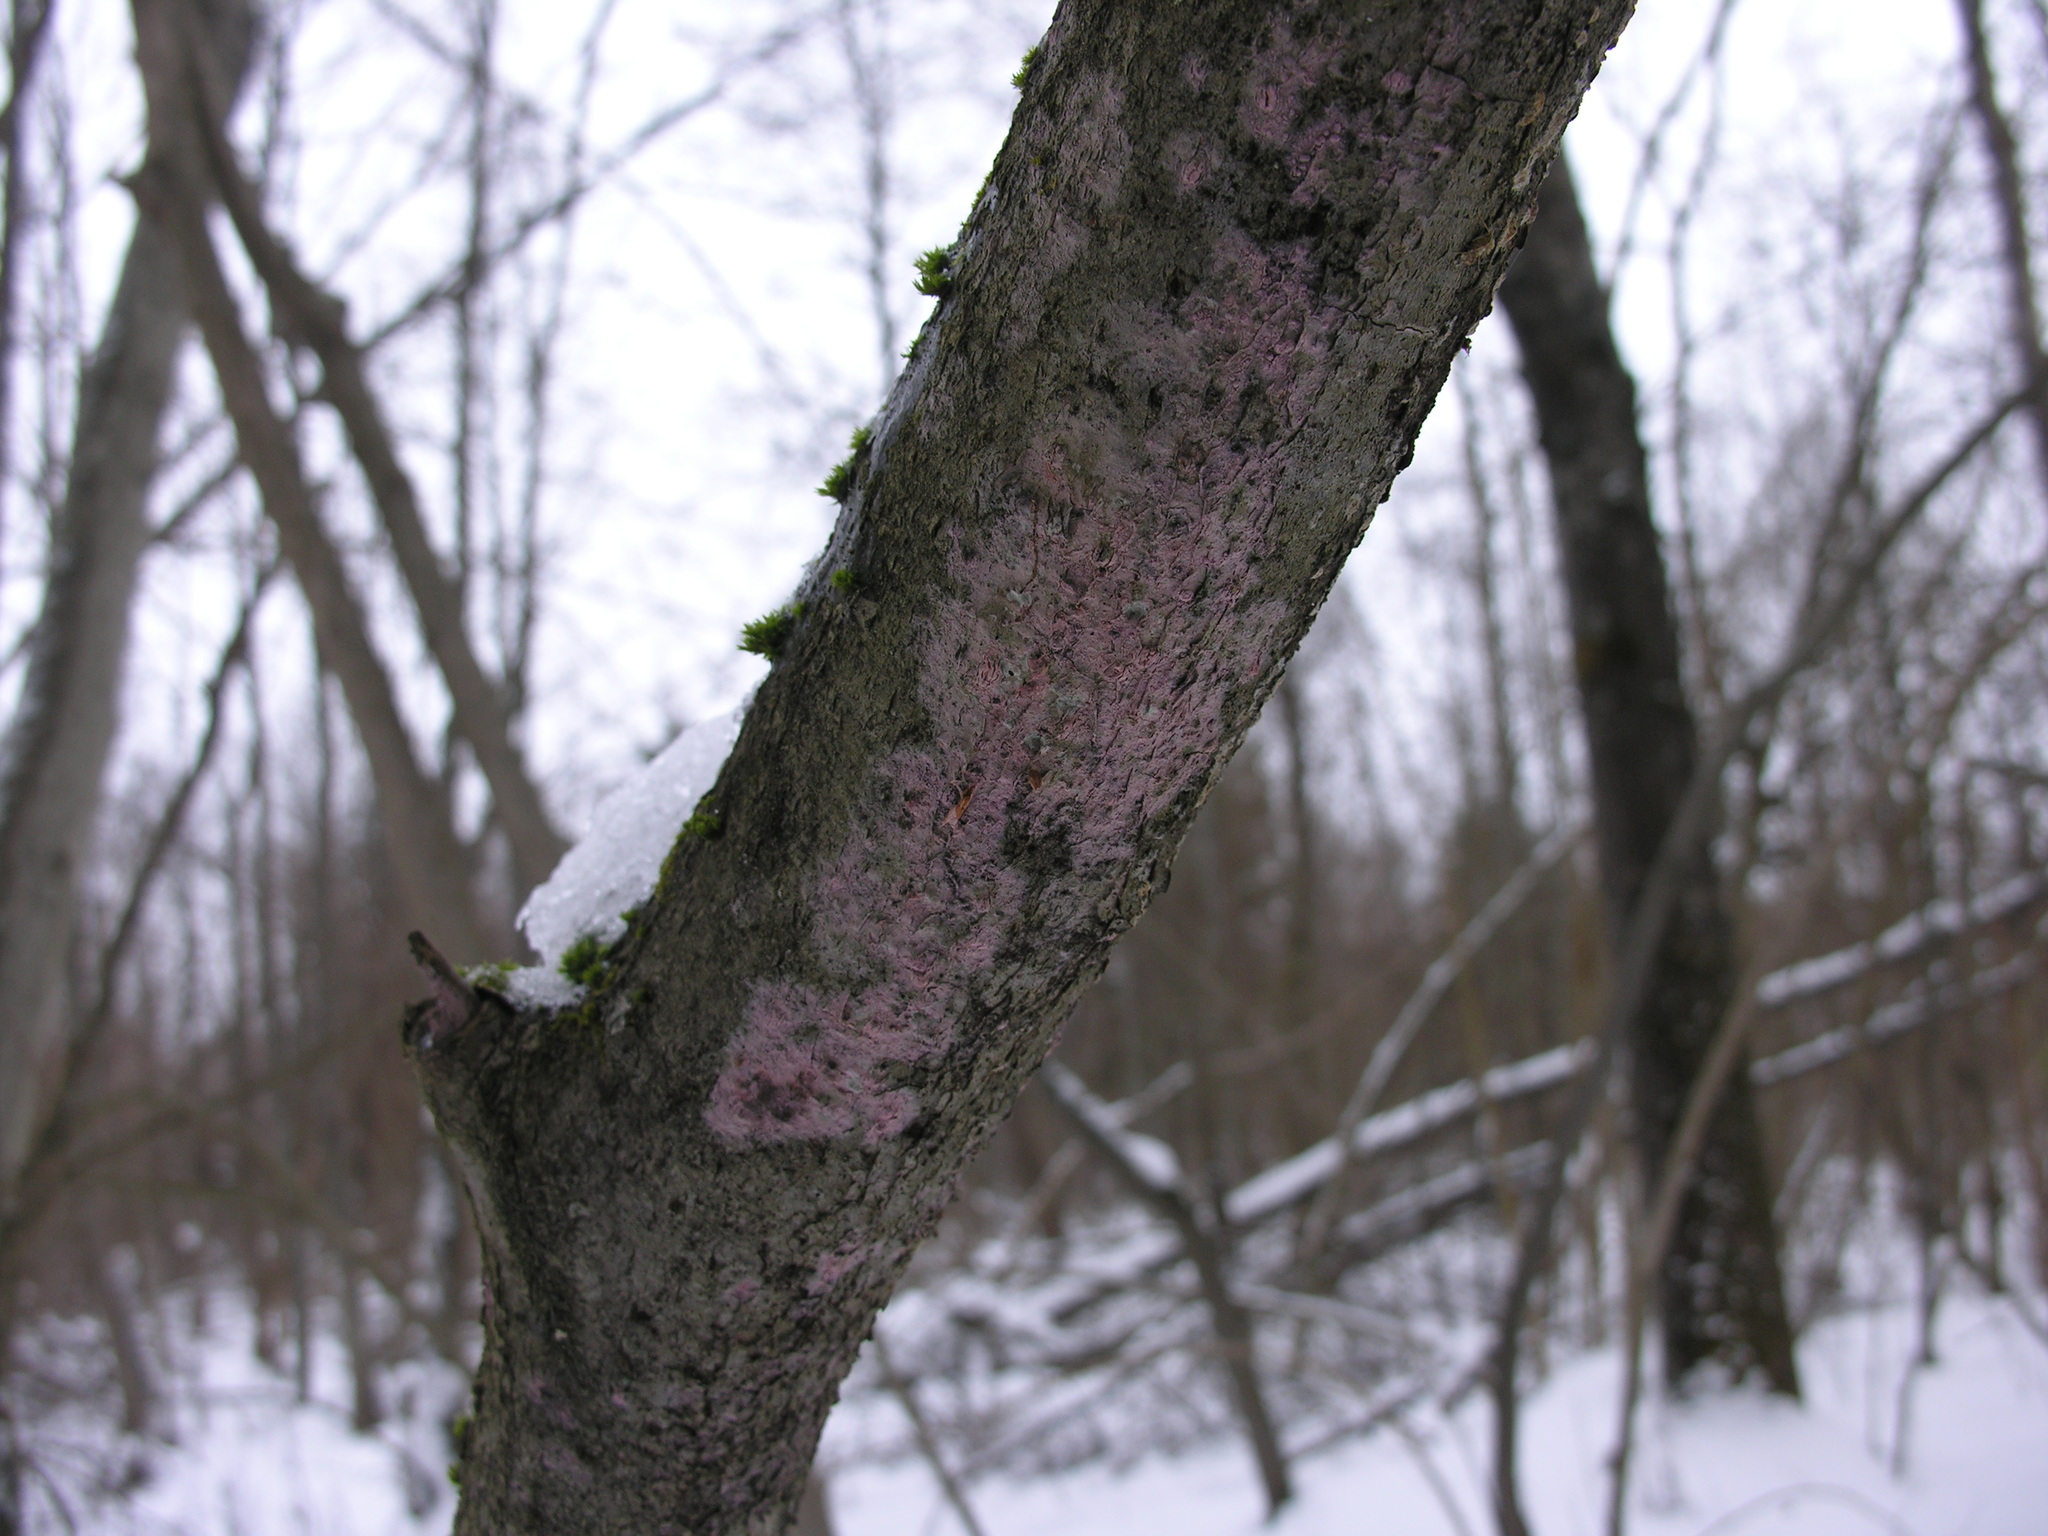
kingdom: Fungi
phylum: Basidiomycota
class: Agaricomycetes
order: Cantharellales
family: Tulasnellaceae
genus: Tulasnella
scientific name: Tulasnella violea
